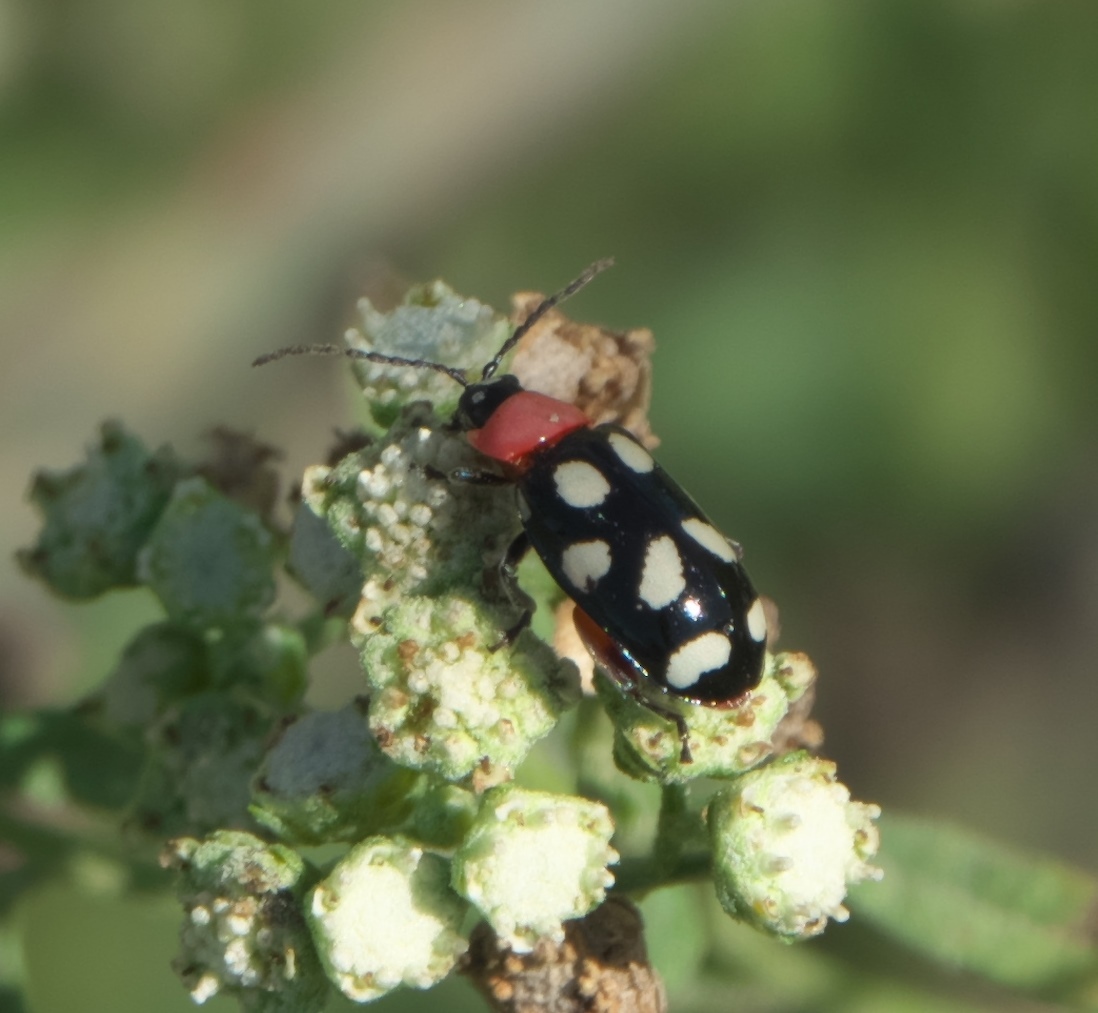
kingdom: Animalia
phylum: Arthropoda
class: Insecta
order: Coleoptera
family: Chrysomelidae
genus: Omophoita
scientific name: Omophoita cyanipennis
